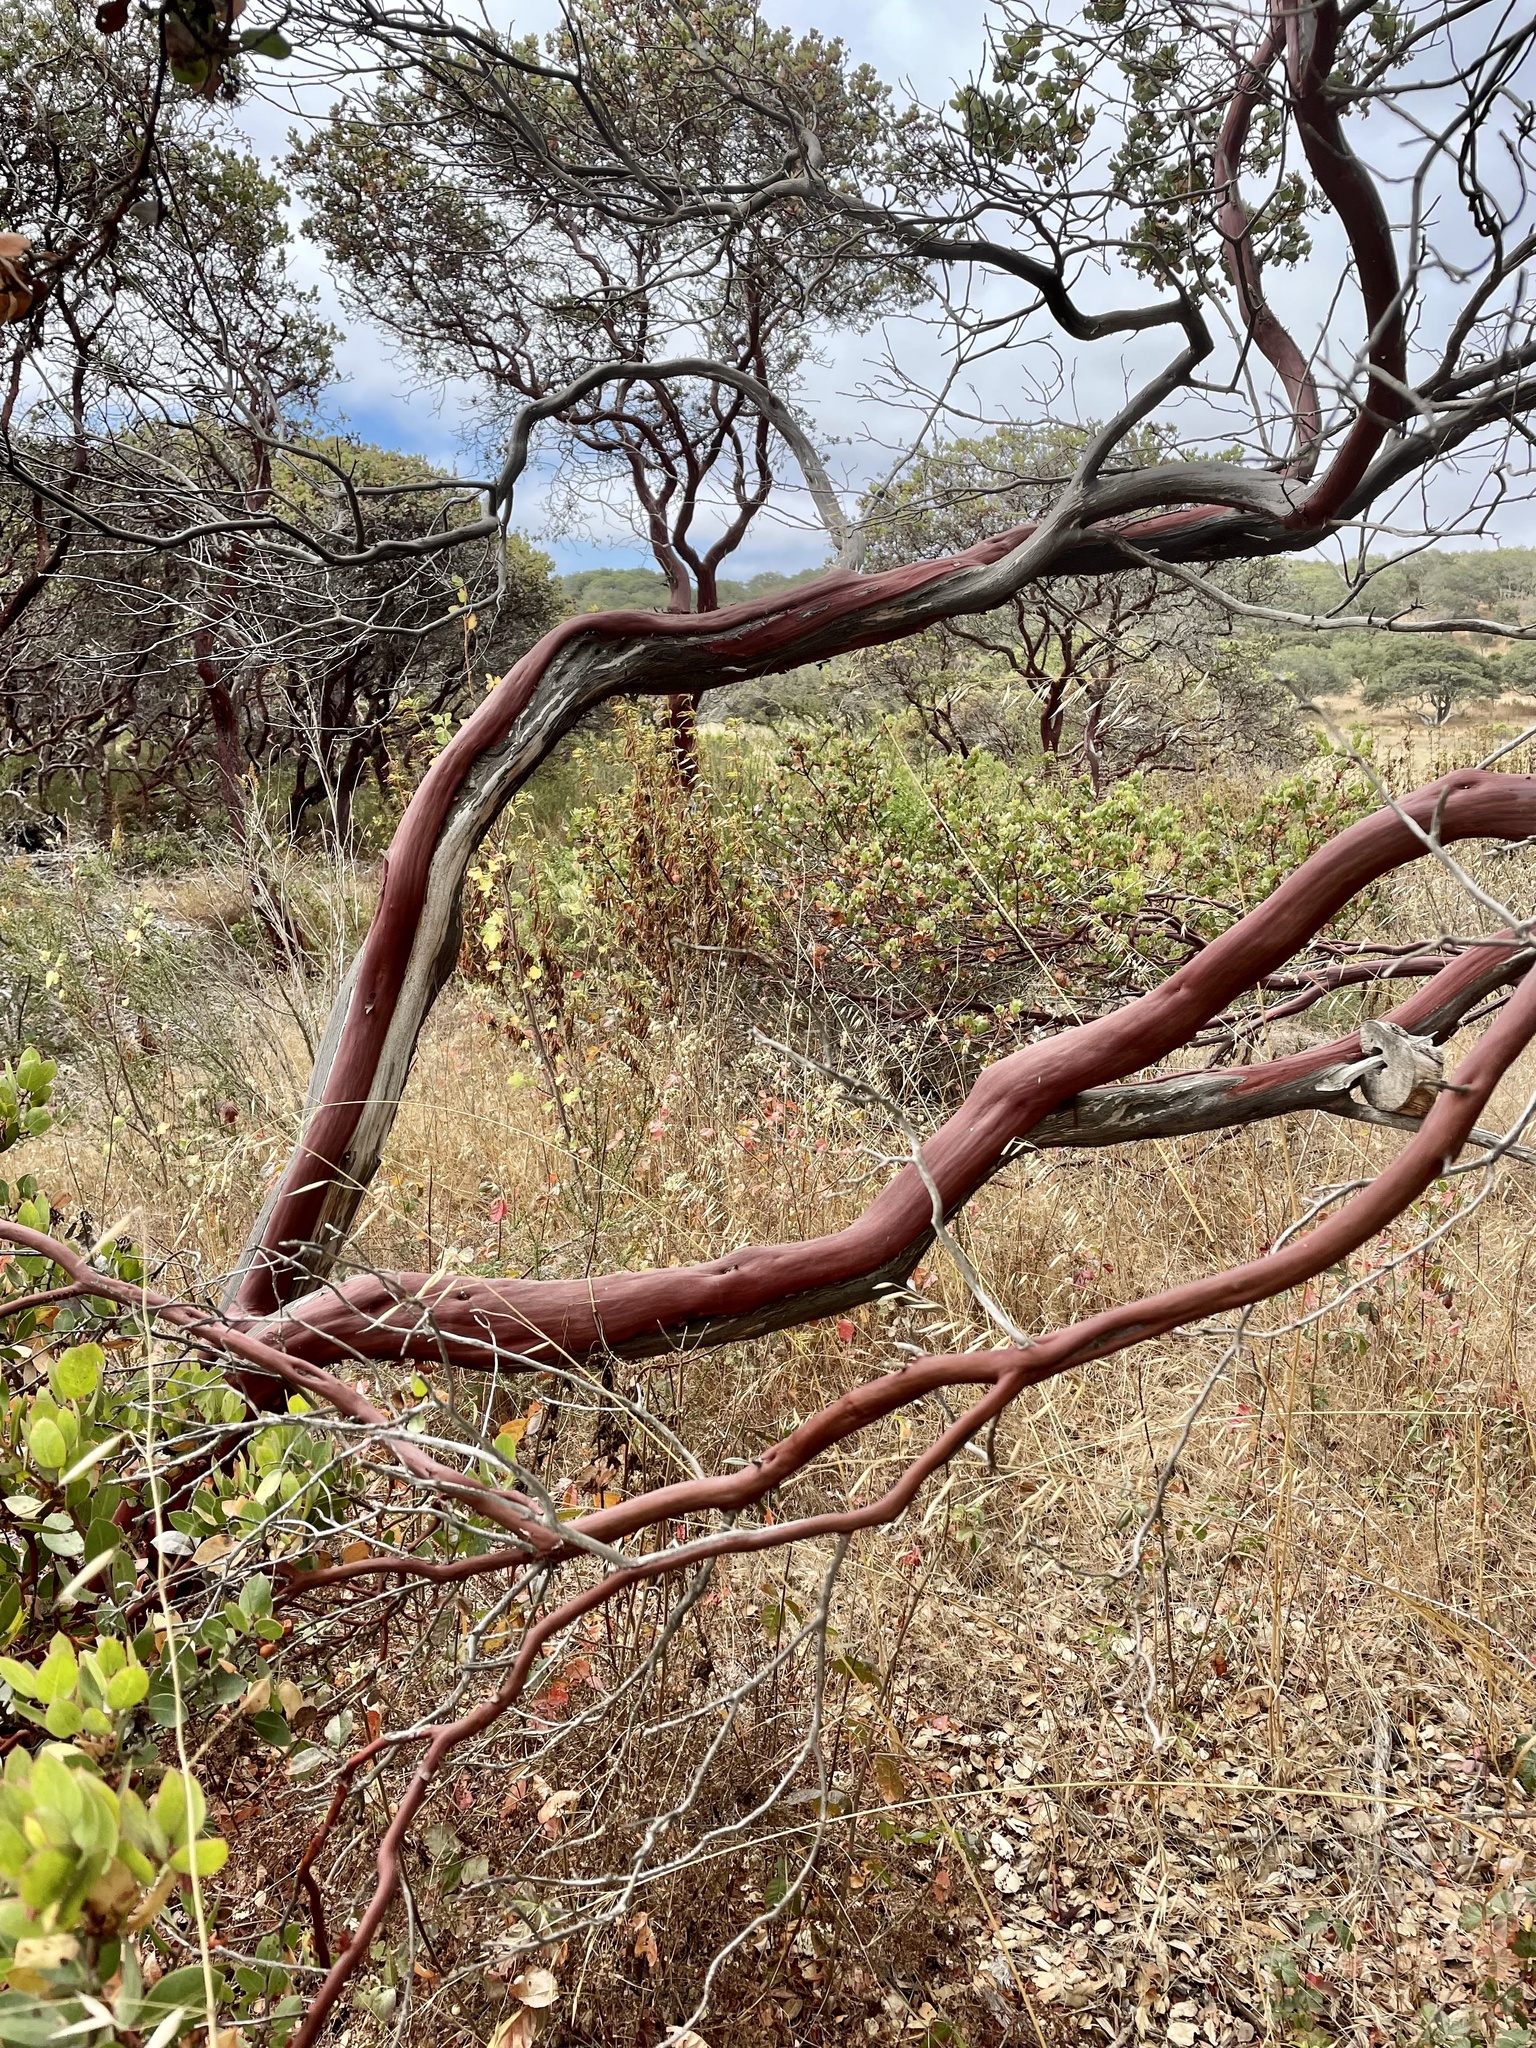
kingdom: Plantae
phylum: Tracheophyta
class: Magnoliopsida
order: Ericales
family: Ericaceae
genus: Arctostaphylos
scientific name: Arctostaphylos montereyensis
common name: Monterey manzanita
